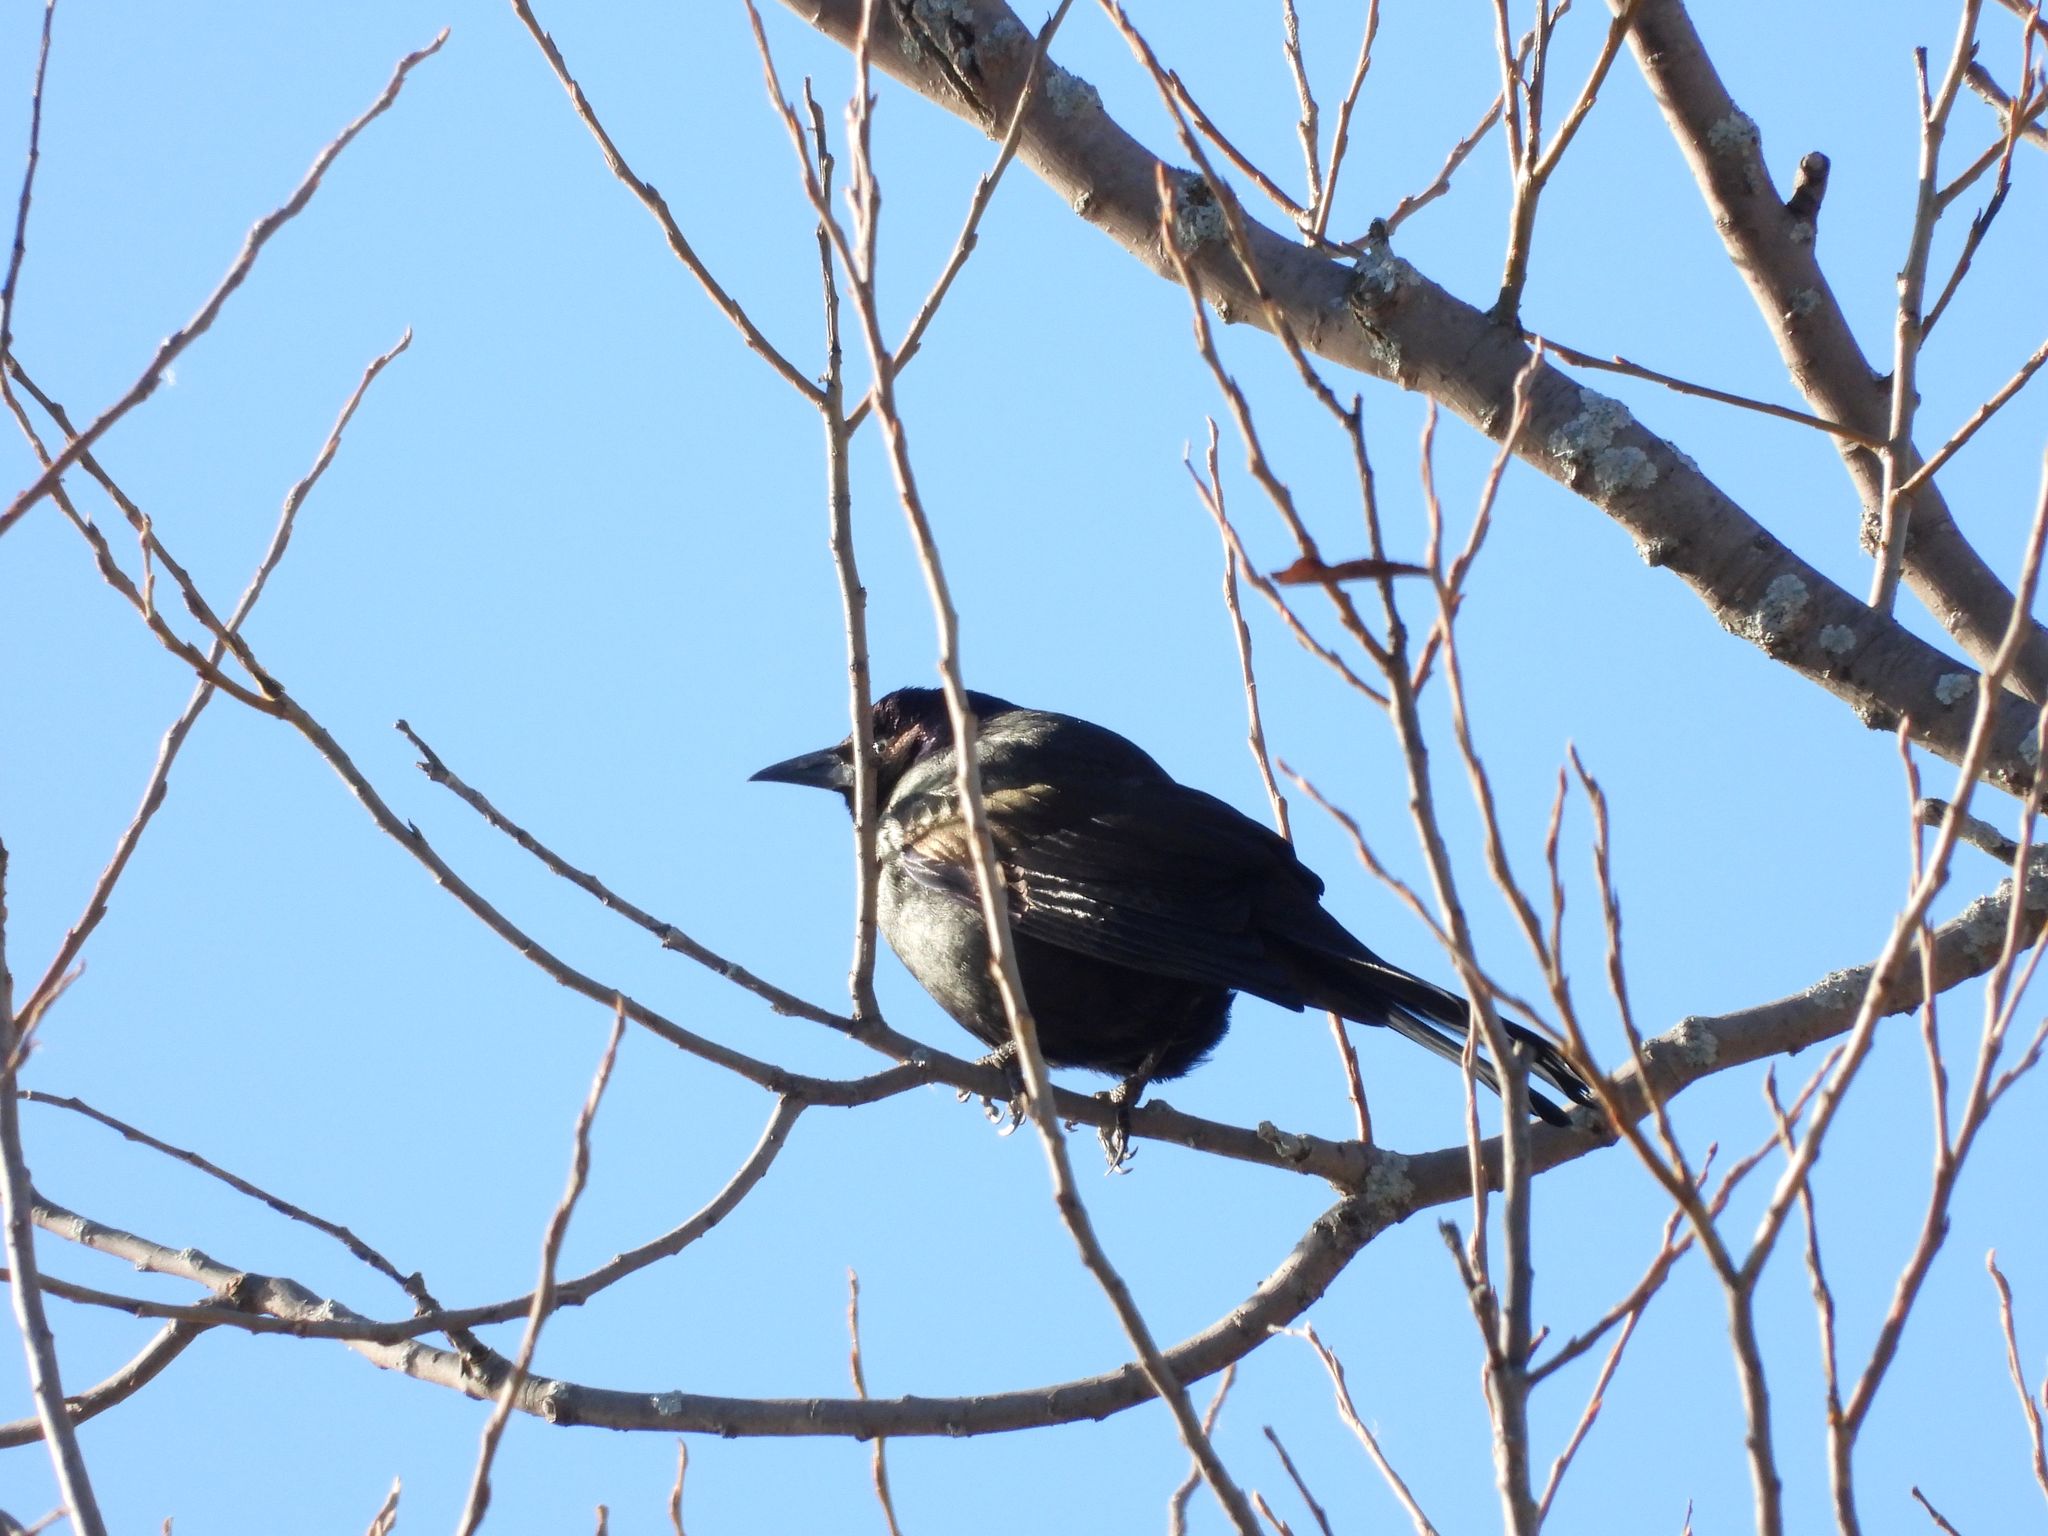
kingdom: Animalia
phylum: Chordata
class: Aves
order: Passeriformes
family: Icteridae
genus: Quiscalus
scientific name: Quiscalus quiscula
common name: Common grackle
